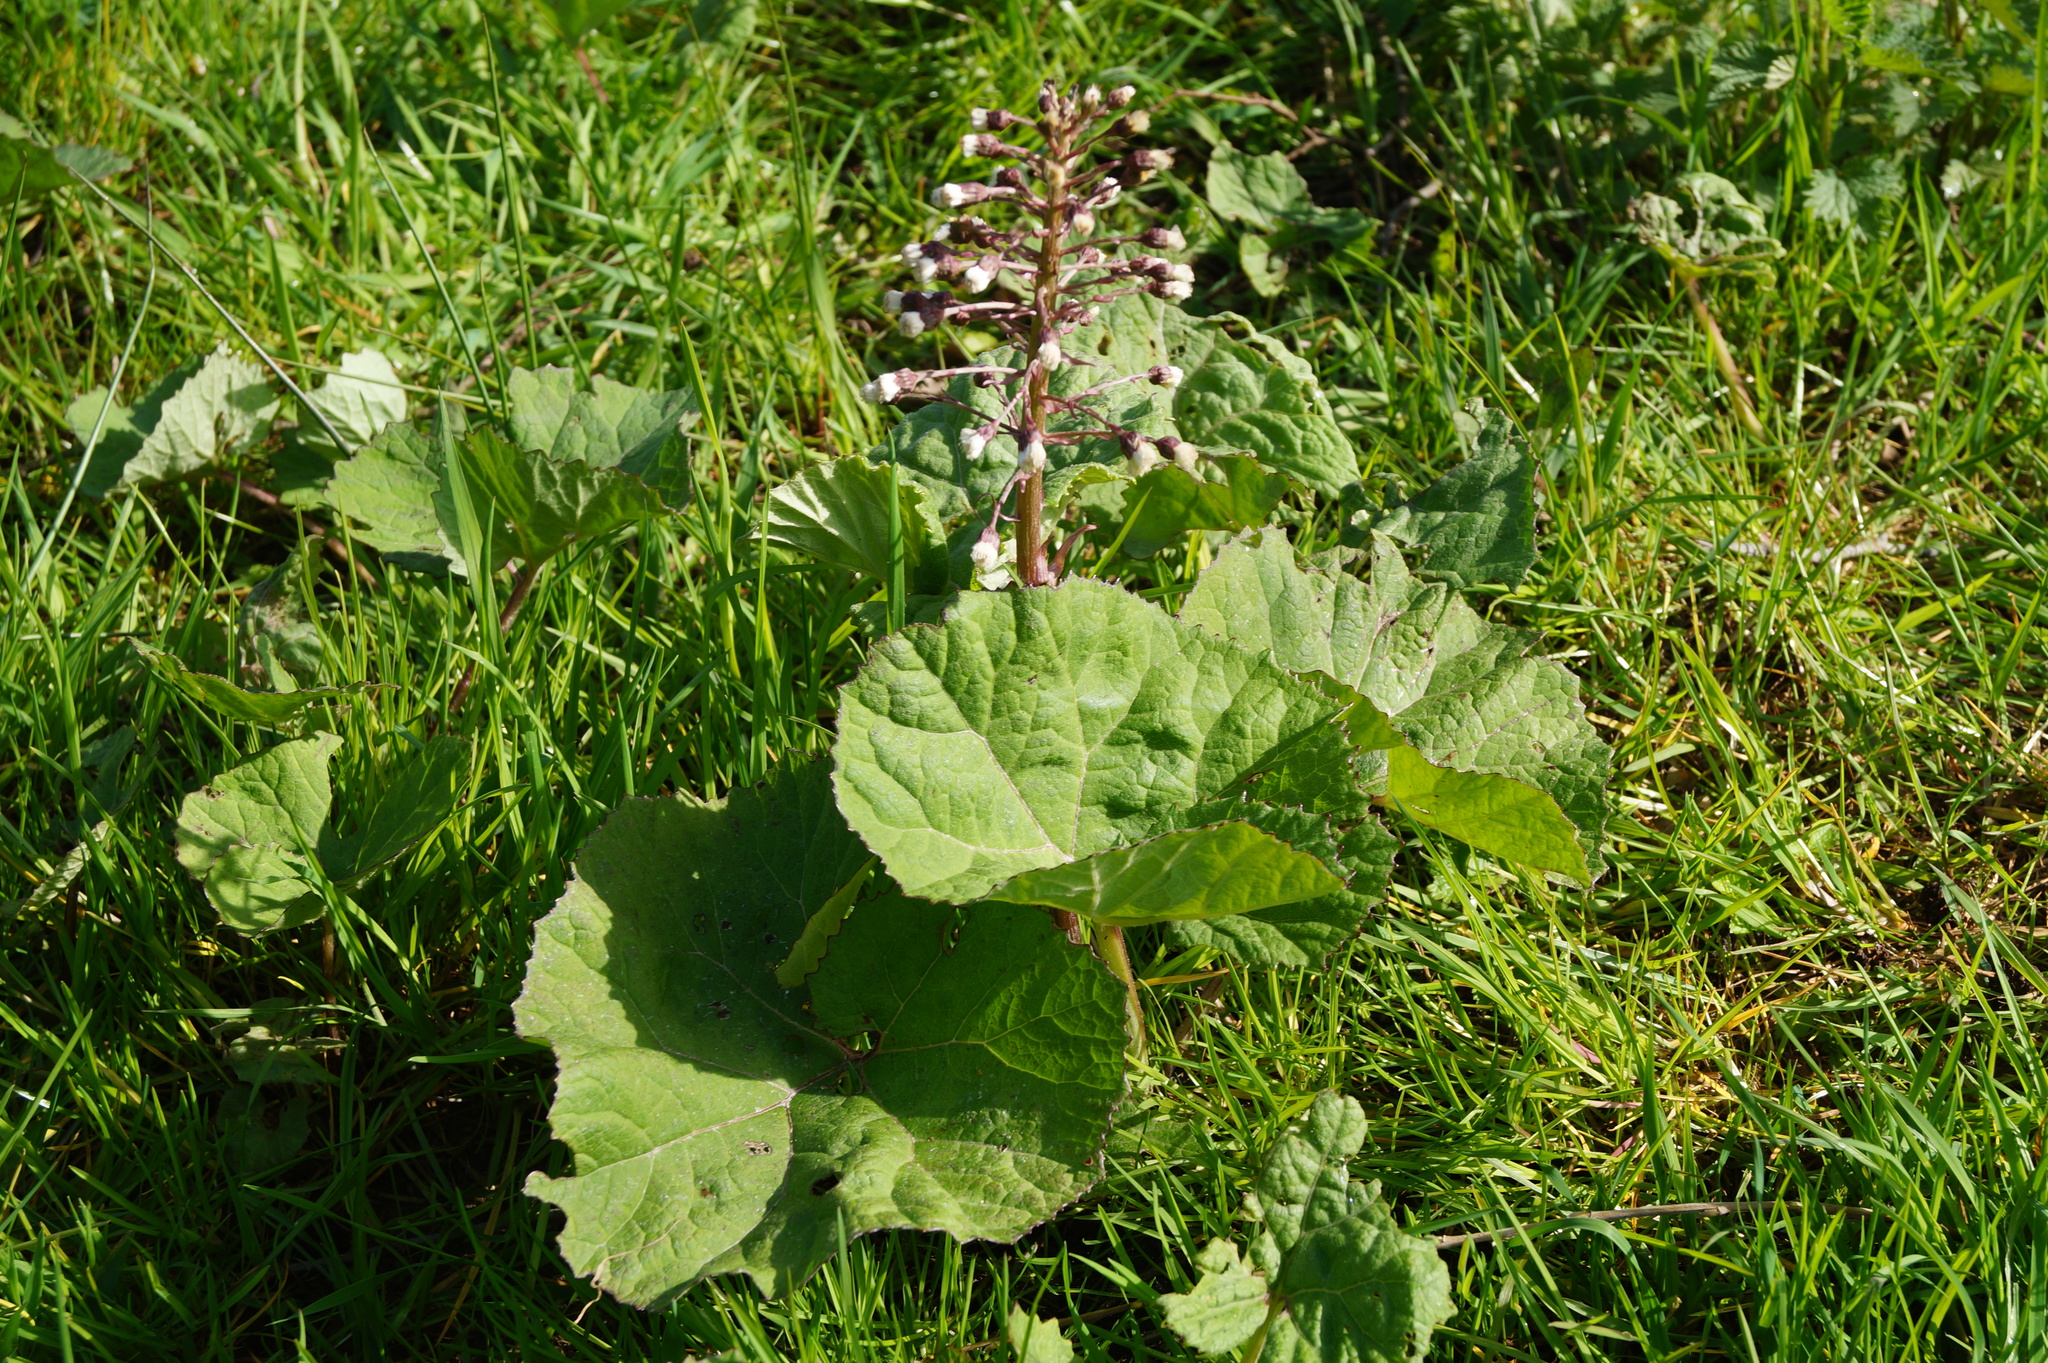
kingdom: Plantae
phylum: Tracheophyta
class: Magnoliopsida
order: Asterales
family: Asteraceae
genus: Petasites
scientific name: Petasites hybridus
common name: Butterbur
